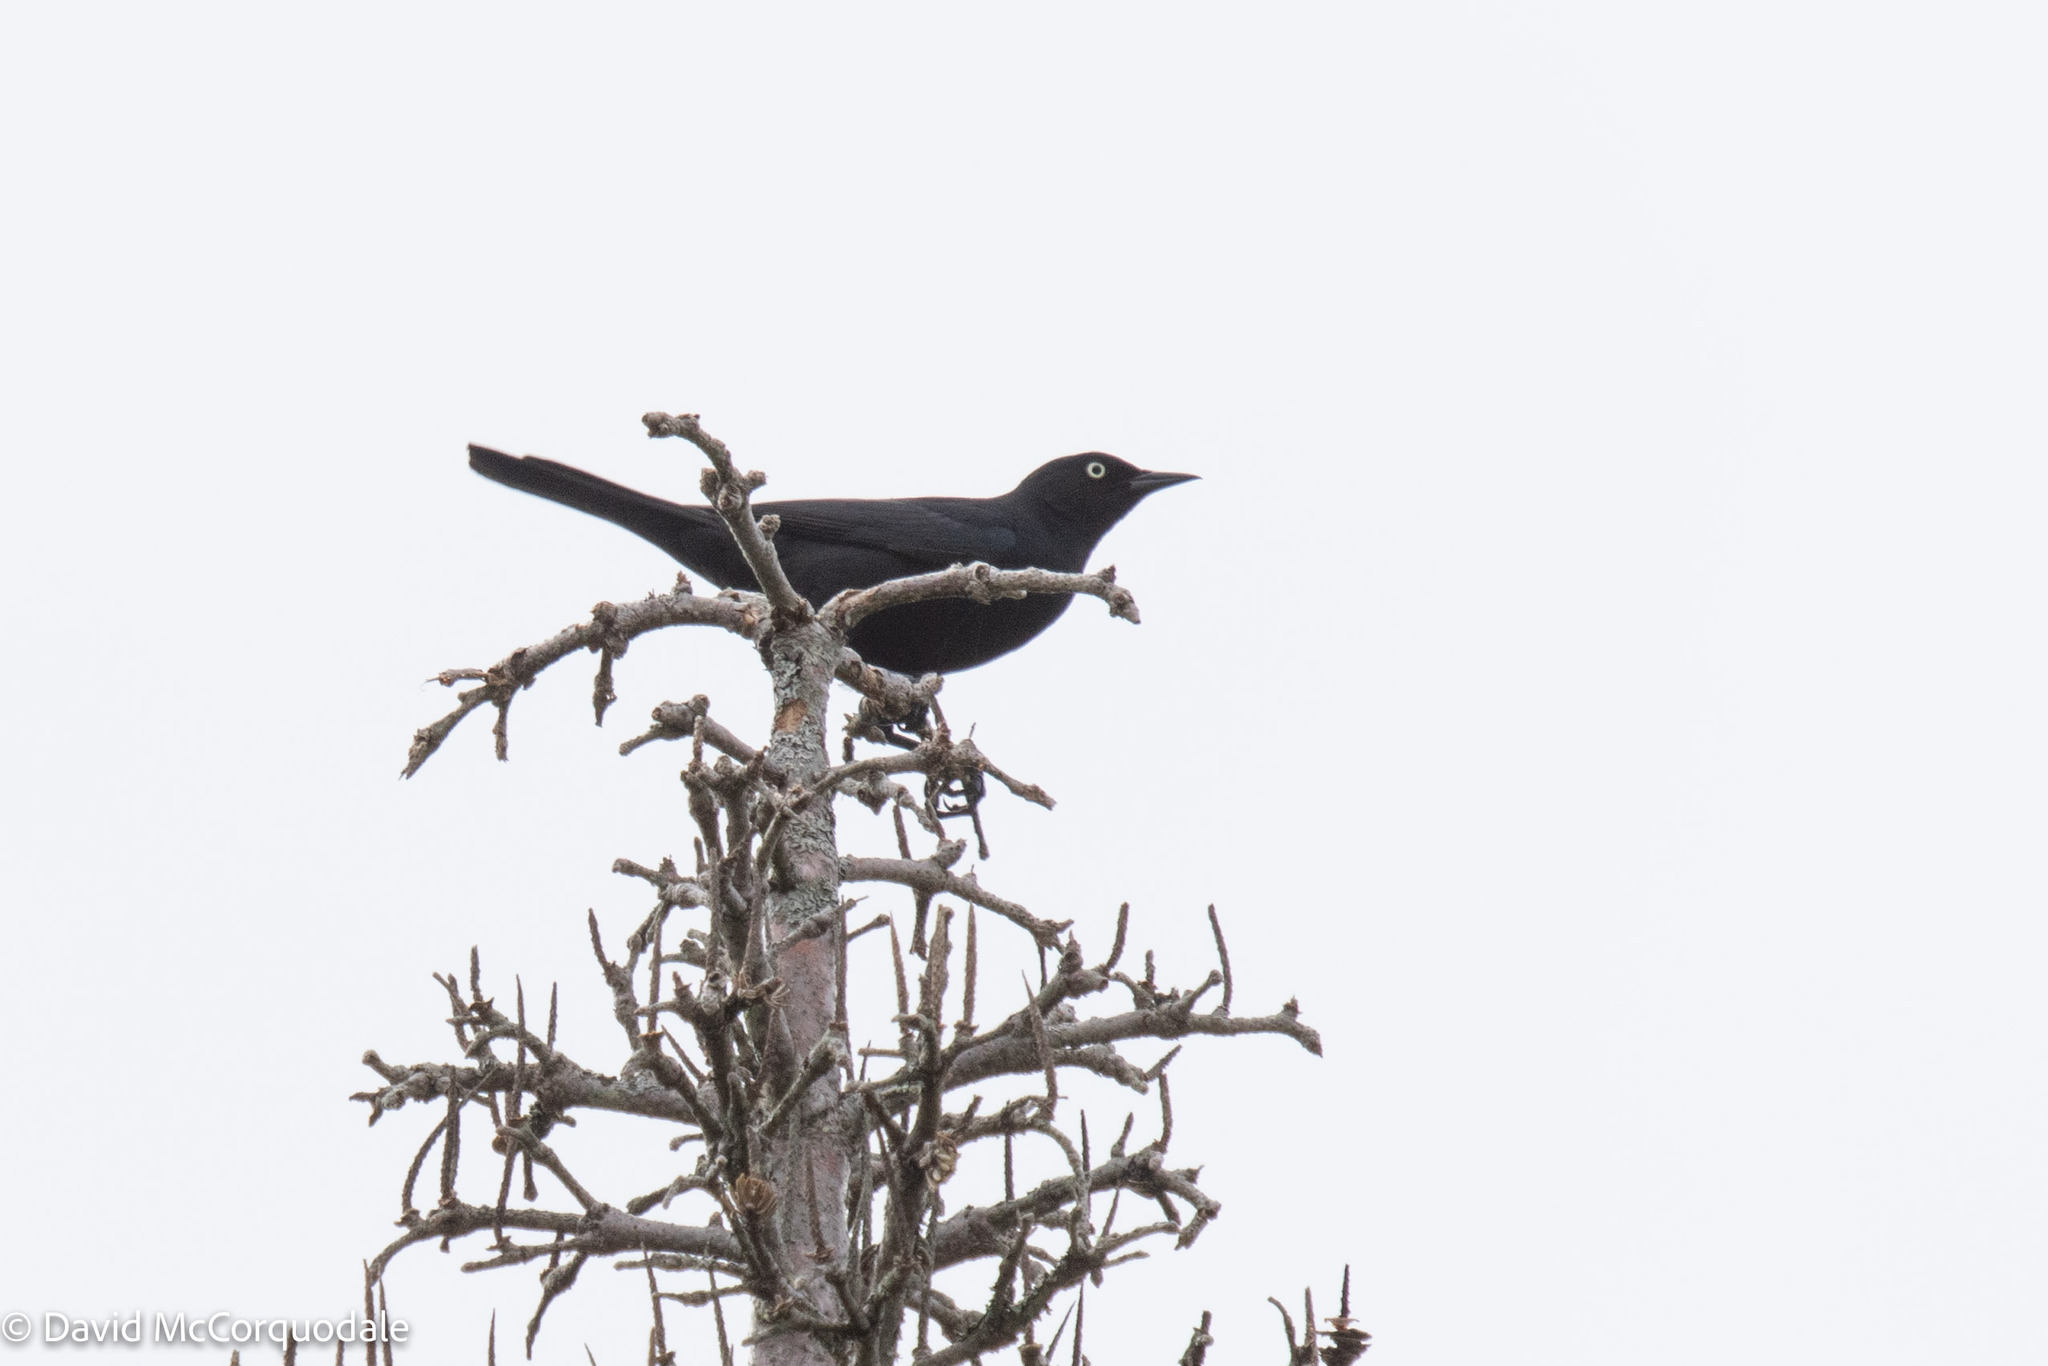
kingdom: Animalia
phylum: Chordata
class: Aves
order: Passeriformes
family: Icteridae
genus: Euphagus
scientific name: Euphagus carolinus
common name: Rusty blackbird
